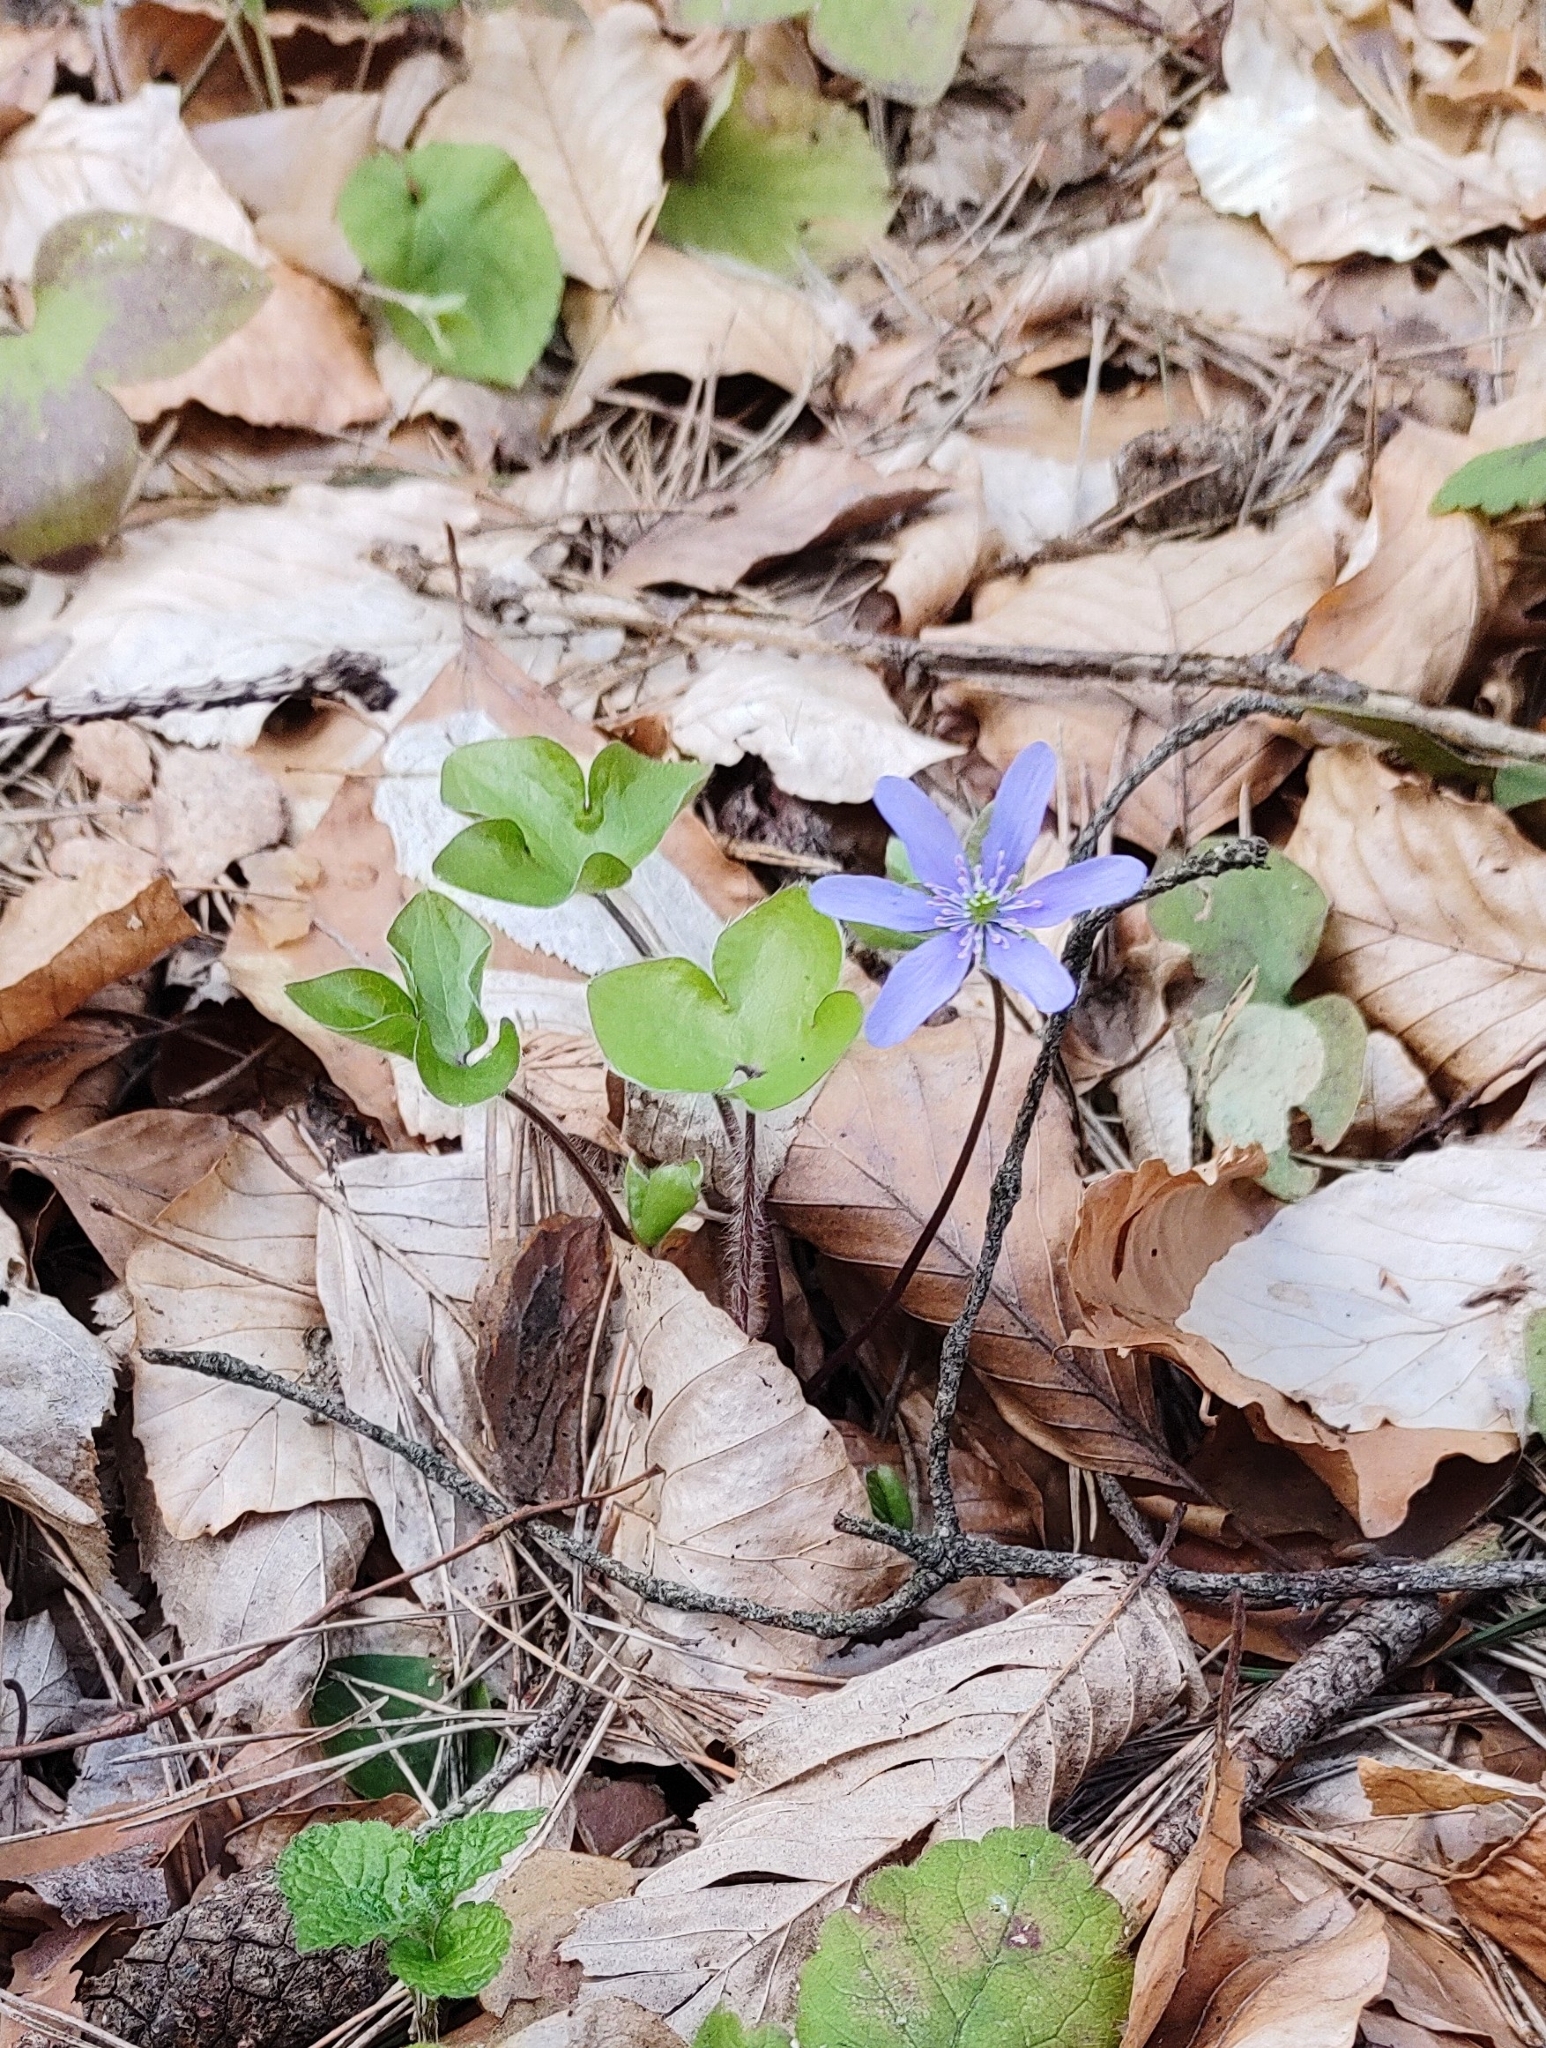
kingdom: Plantae
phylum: Tracheophyta
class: Magnoliopsida
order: Ranunculales
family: Ranunculaceae
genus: Hepatica
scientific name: Hepatica nobilis
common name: Liverleaf
